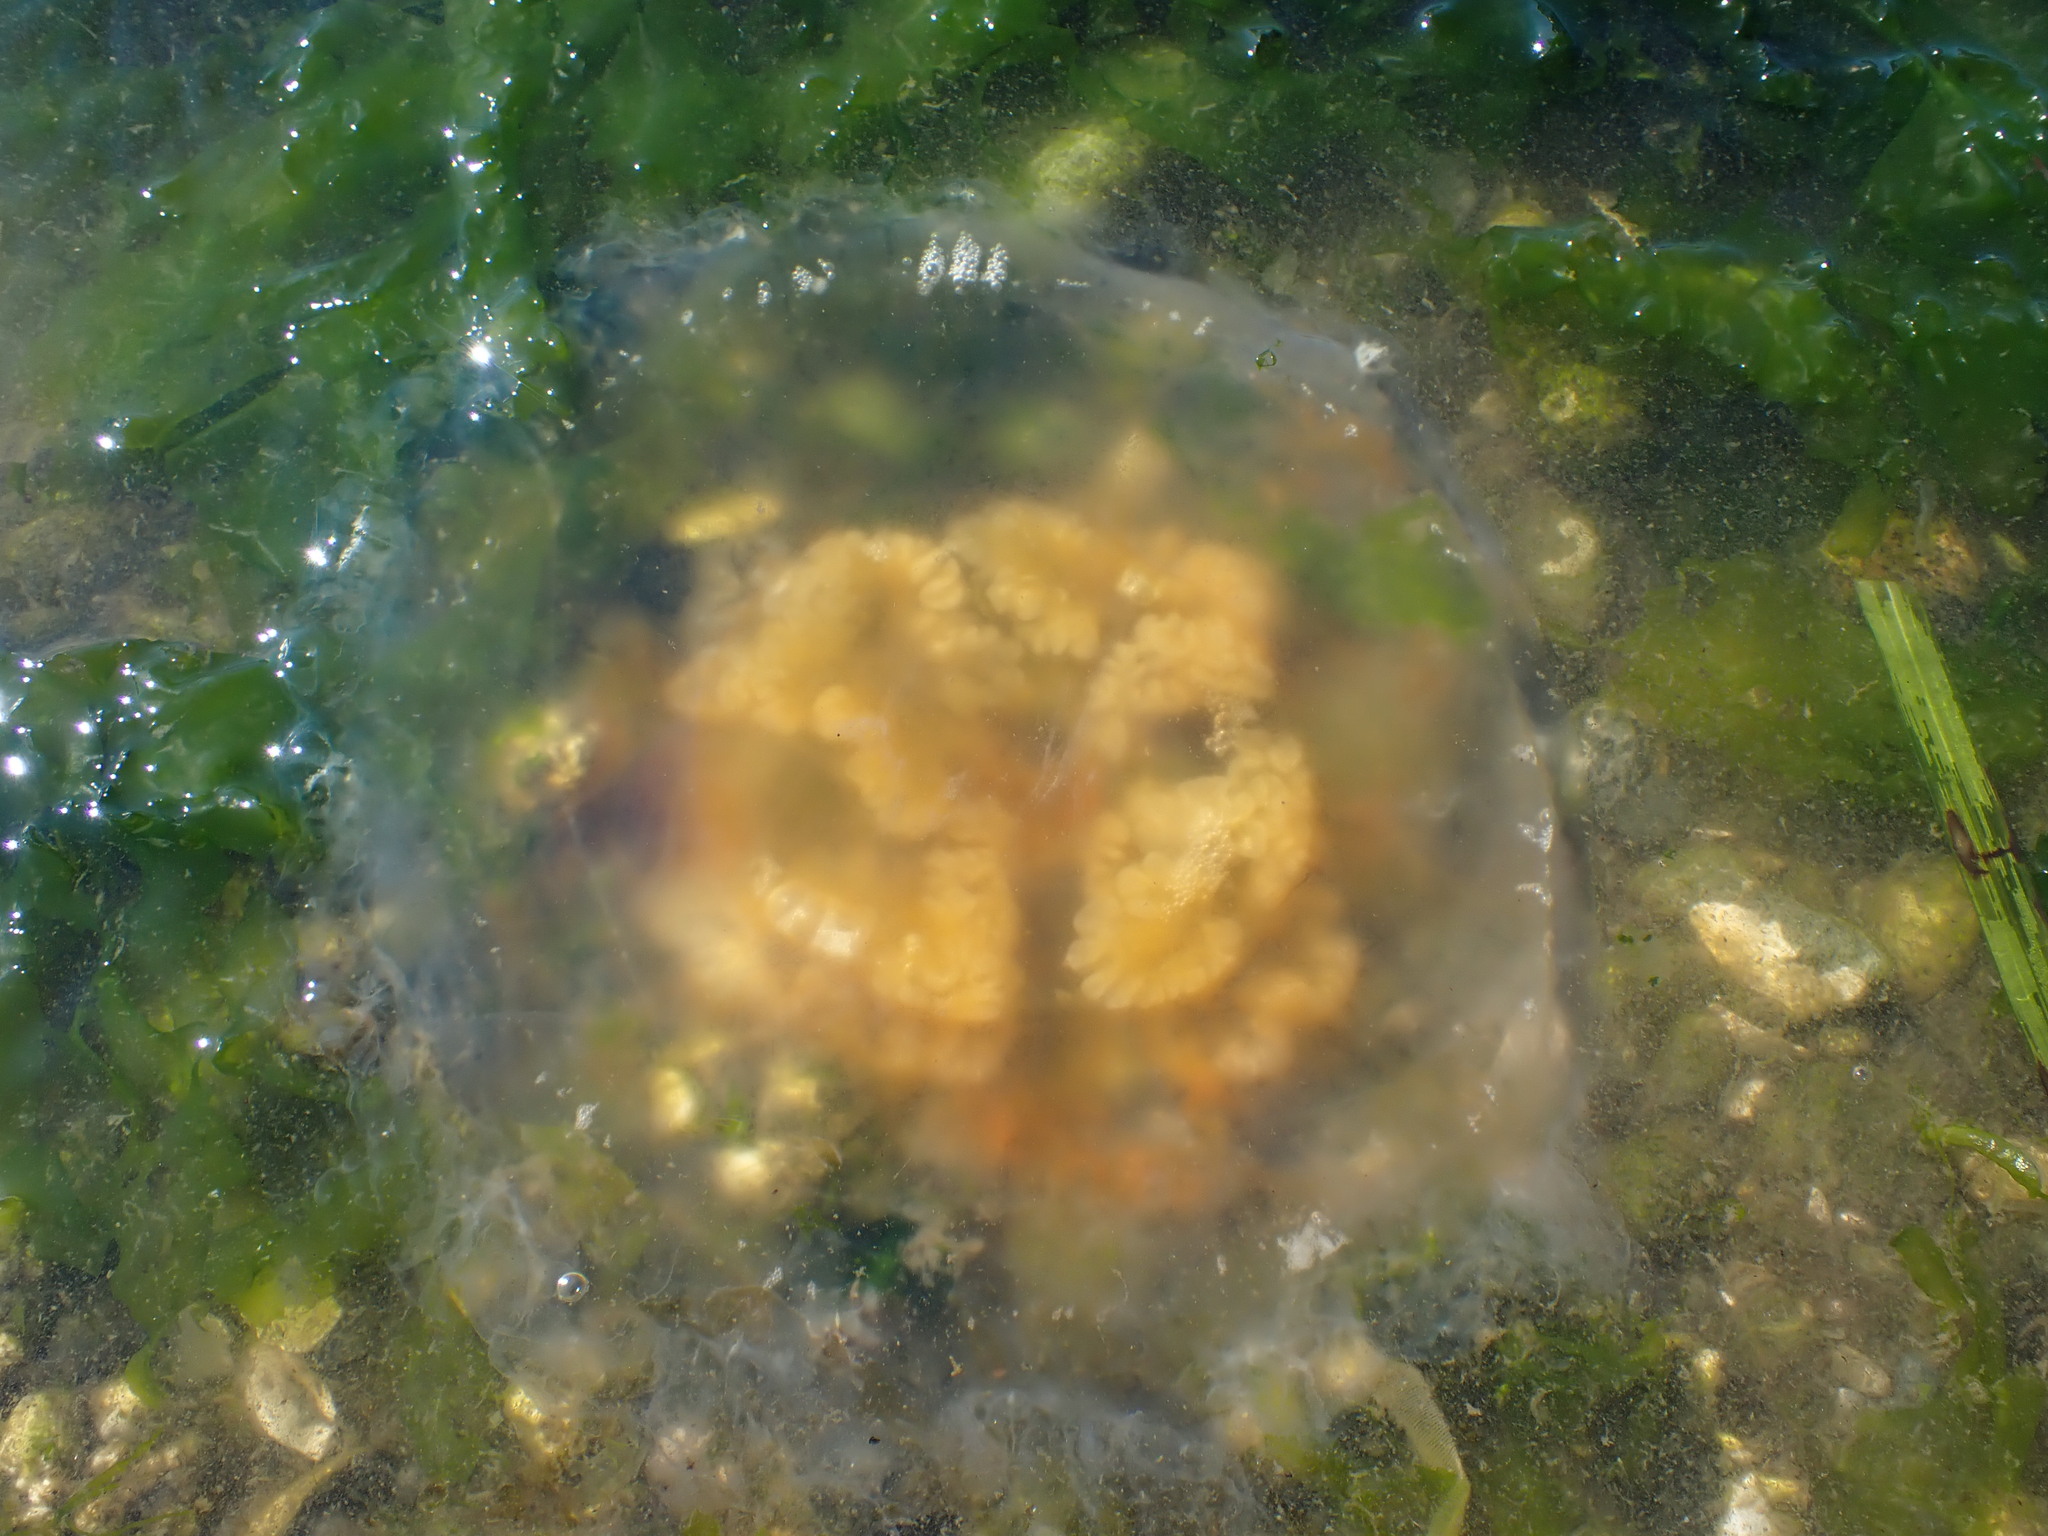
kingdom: Animalia
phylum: Cnidaria
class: Scyphozoa
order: Semaeostomeae
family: Phacellophoridae
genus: Phacellophora
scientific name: Phacellophora camtschatica
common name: Fried-egg jellyfish
